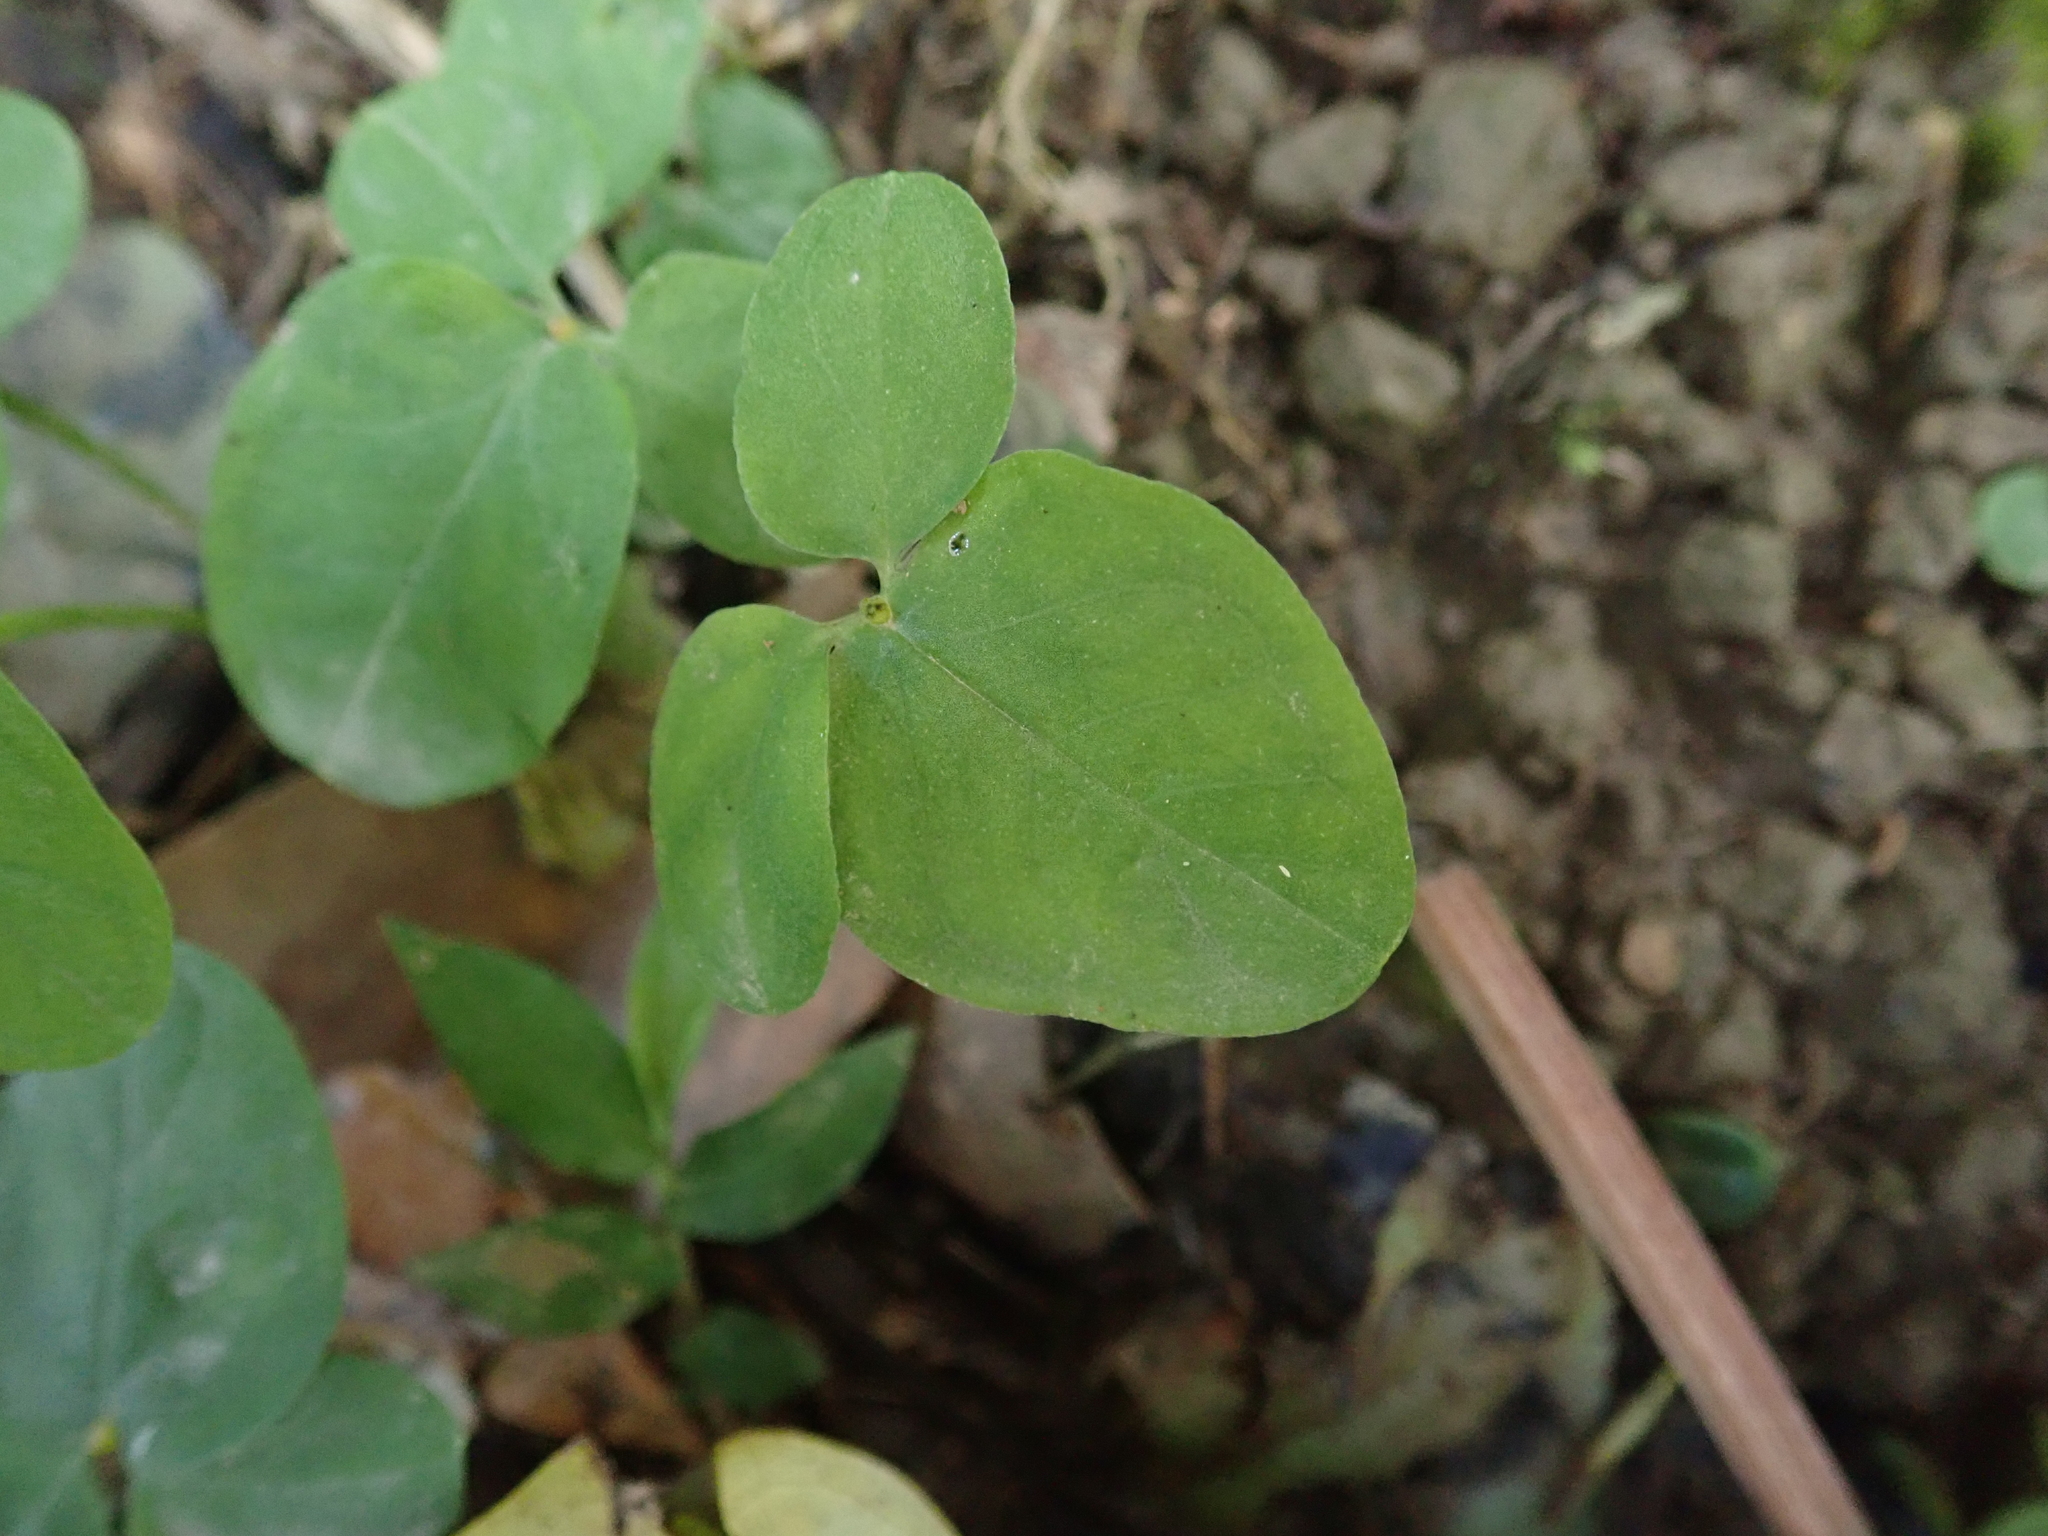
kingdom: Plantae
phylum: Tracheophyta
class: Liliopsida
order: Alismatales
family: Araceae
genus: Pinellia
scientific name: Pinellia ternata
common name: Pinellia
